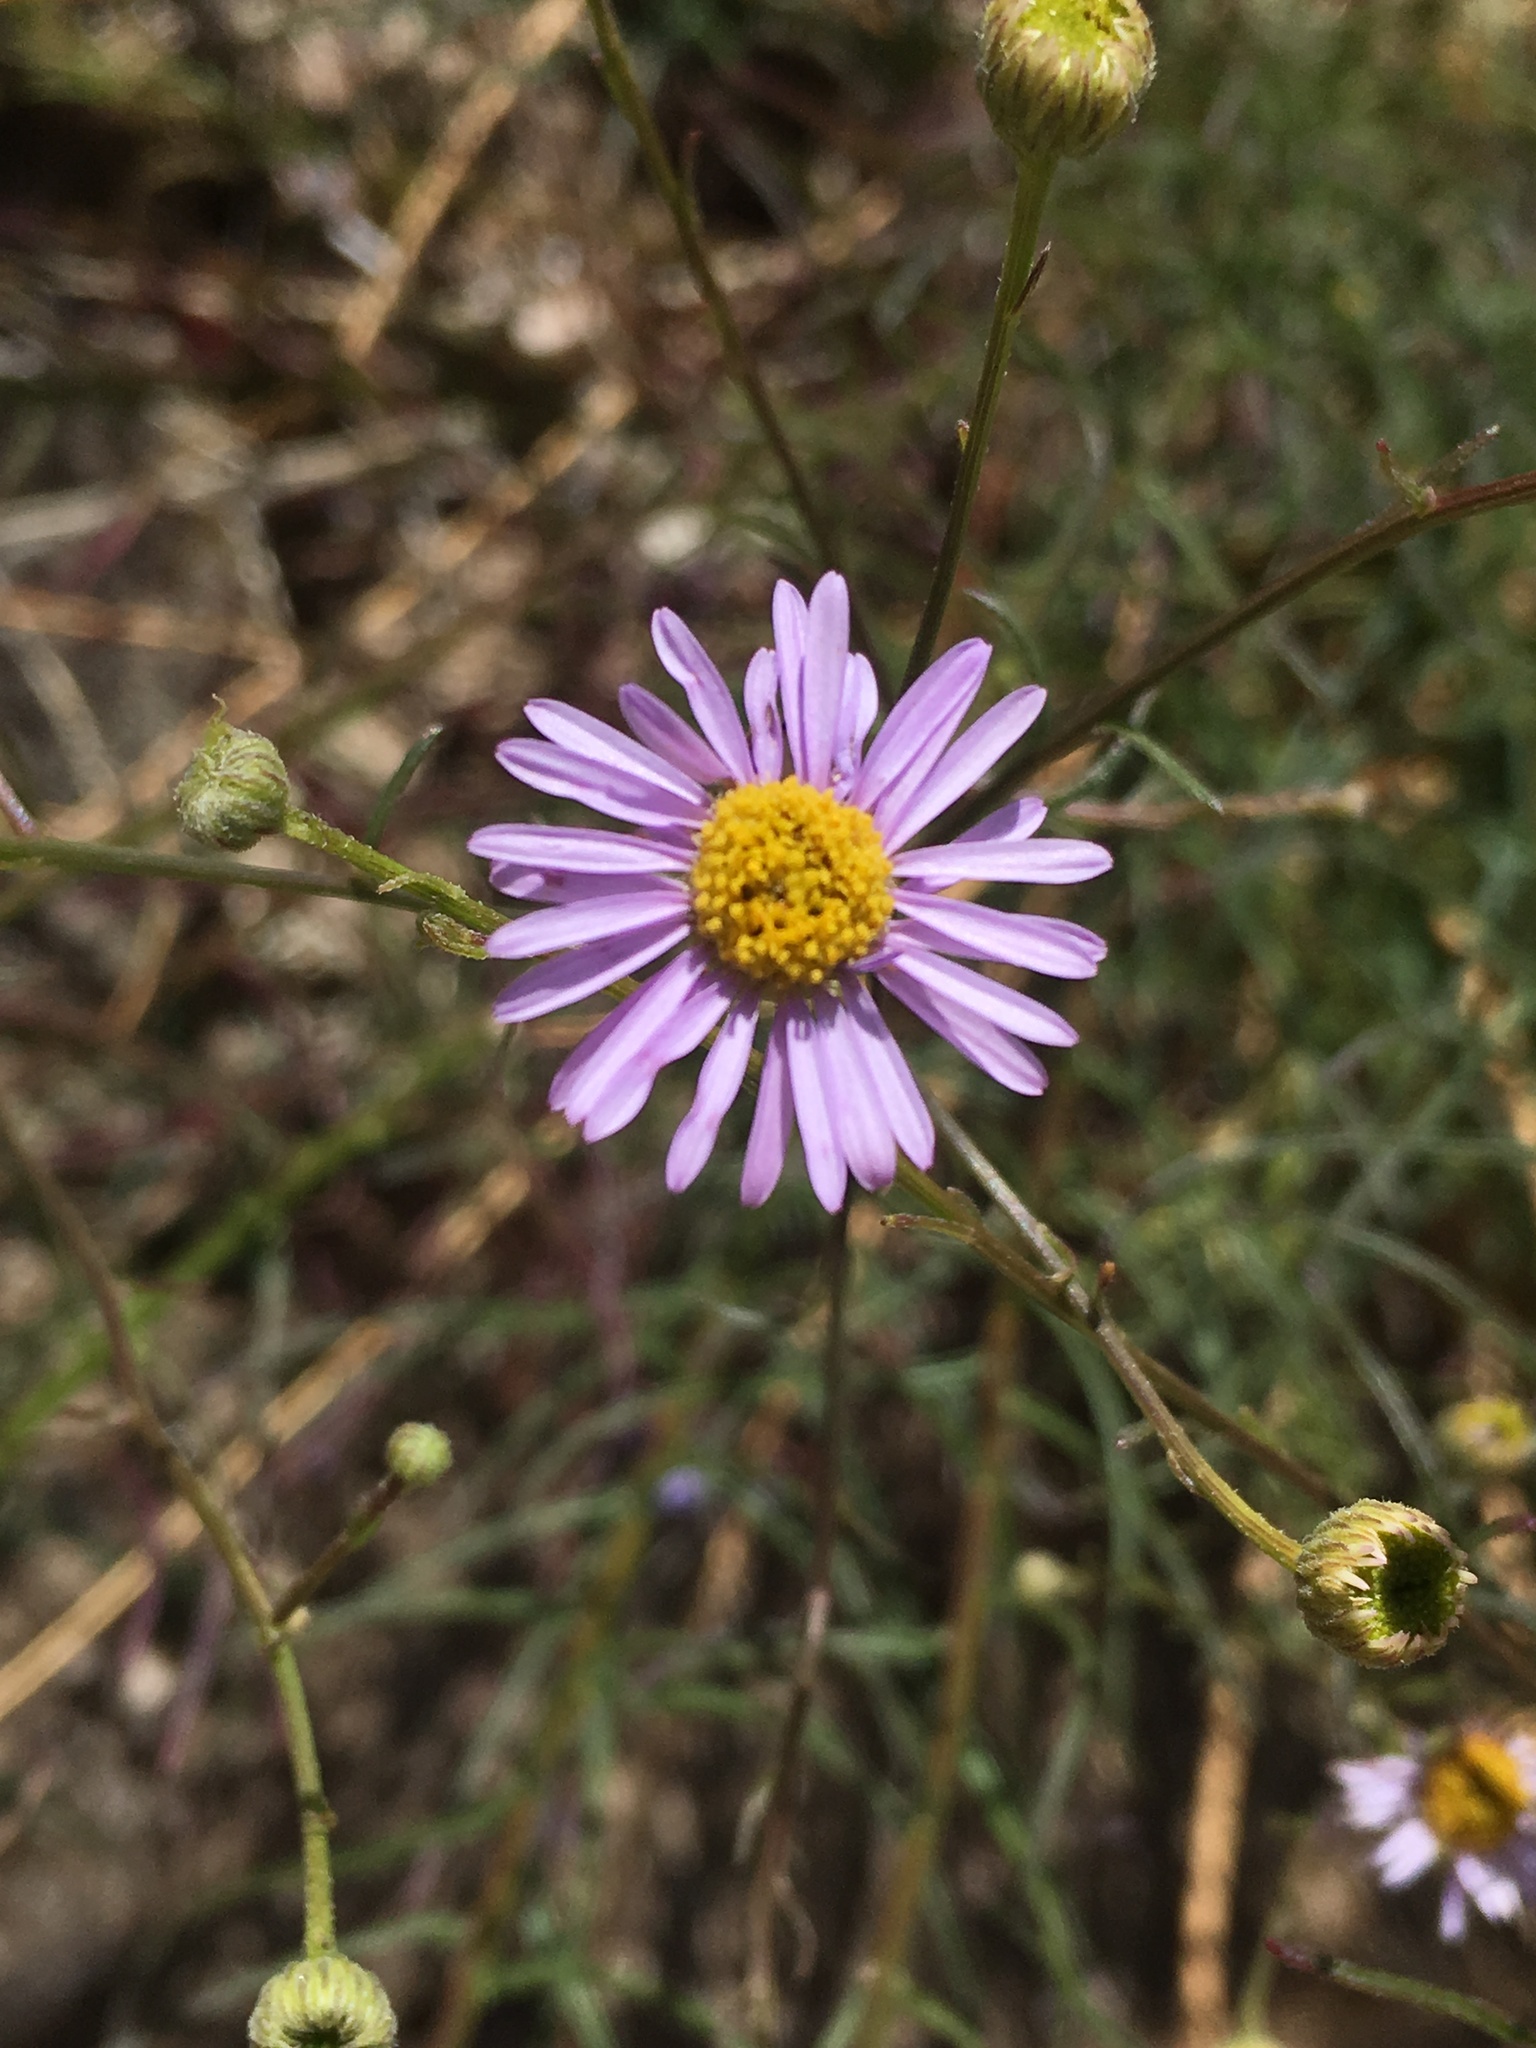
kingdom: Plantae
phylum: Tracheophyta
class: Magnoliopsida
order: Asterales
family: Asteraceae
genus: Erigeron
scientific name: Erigeron foliosus
